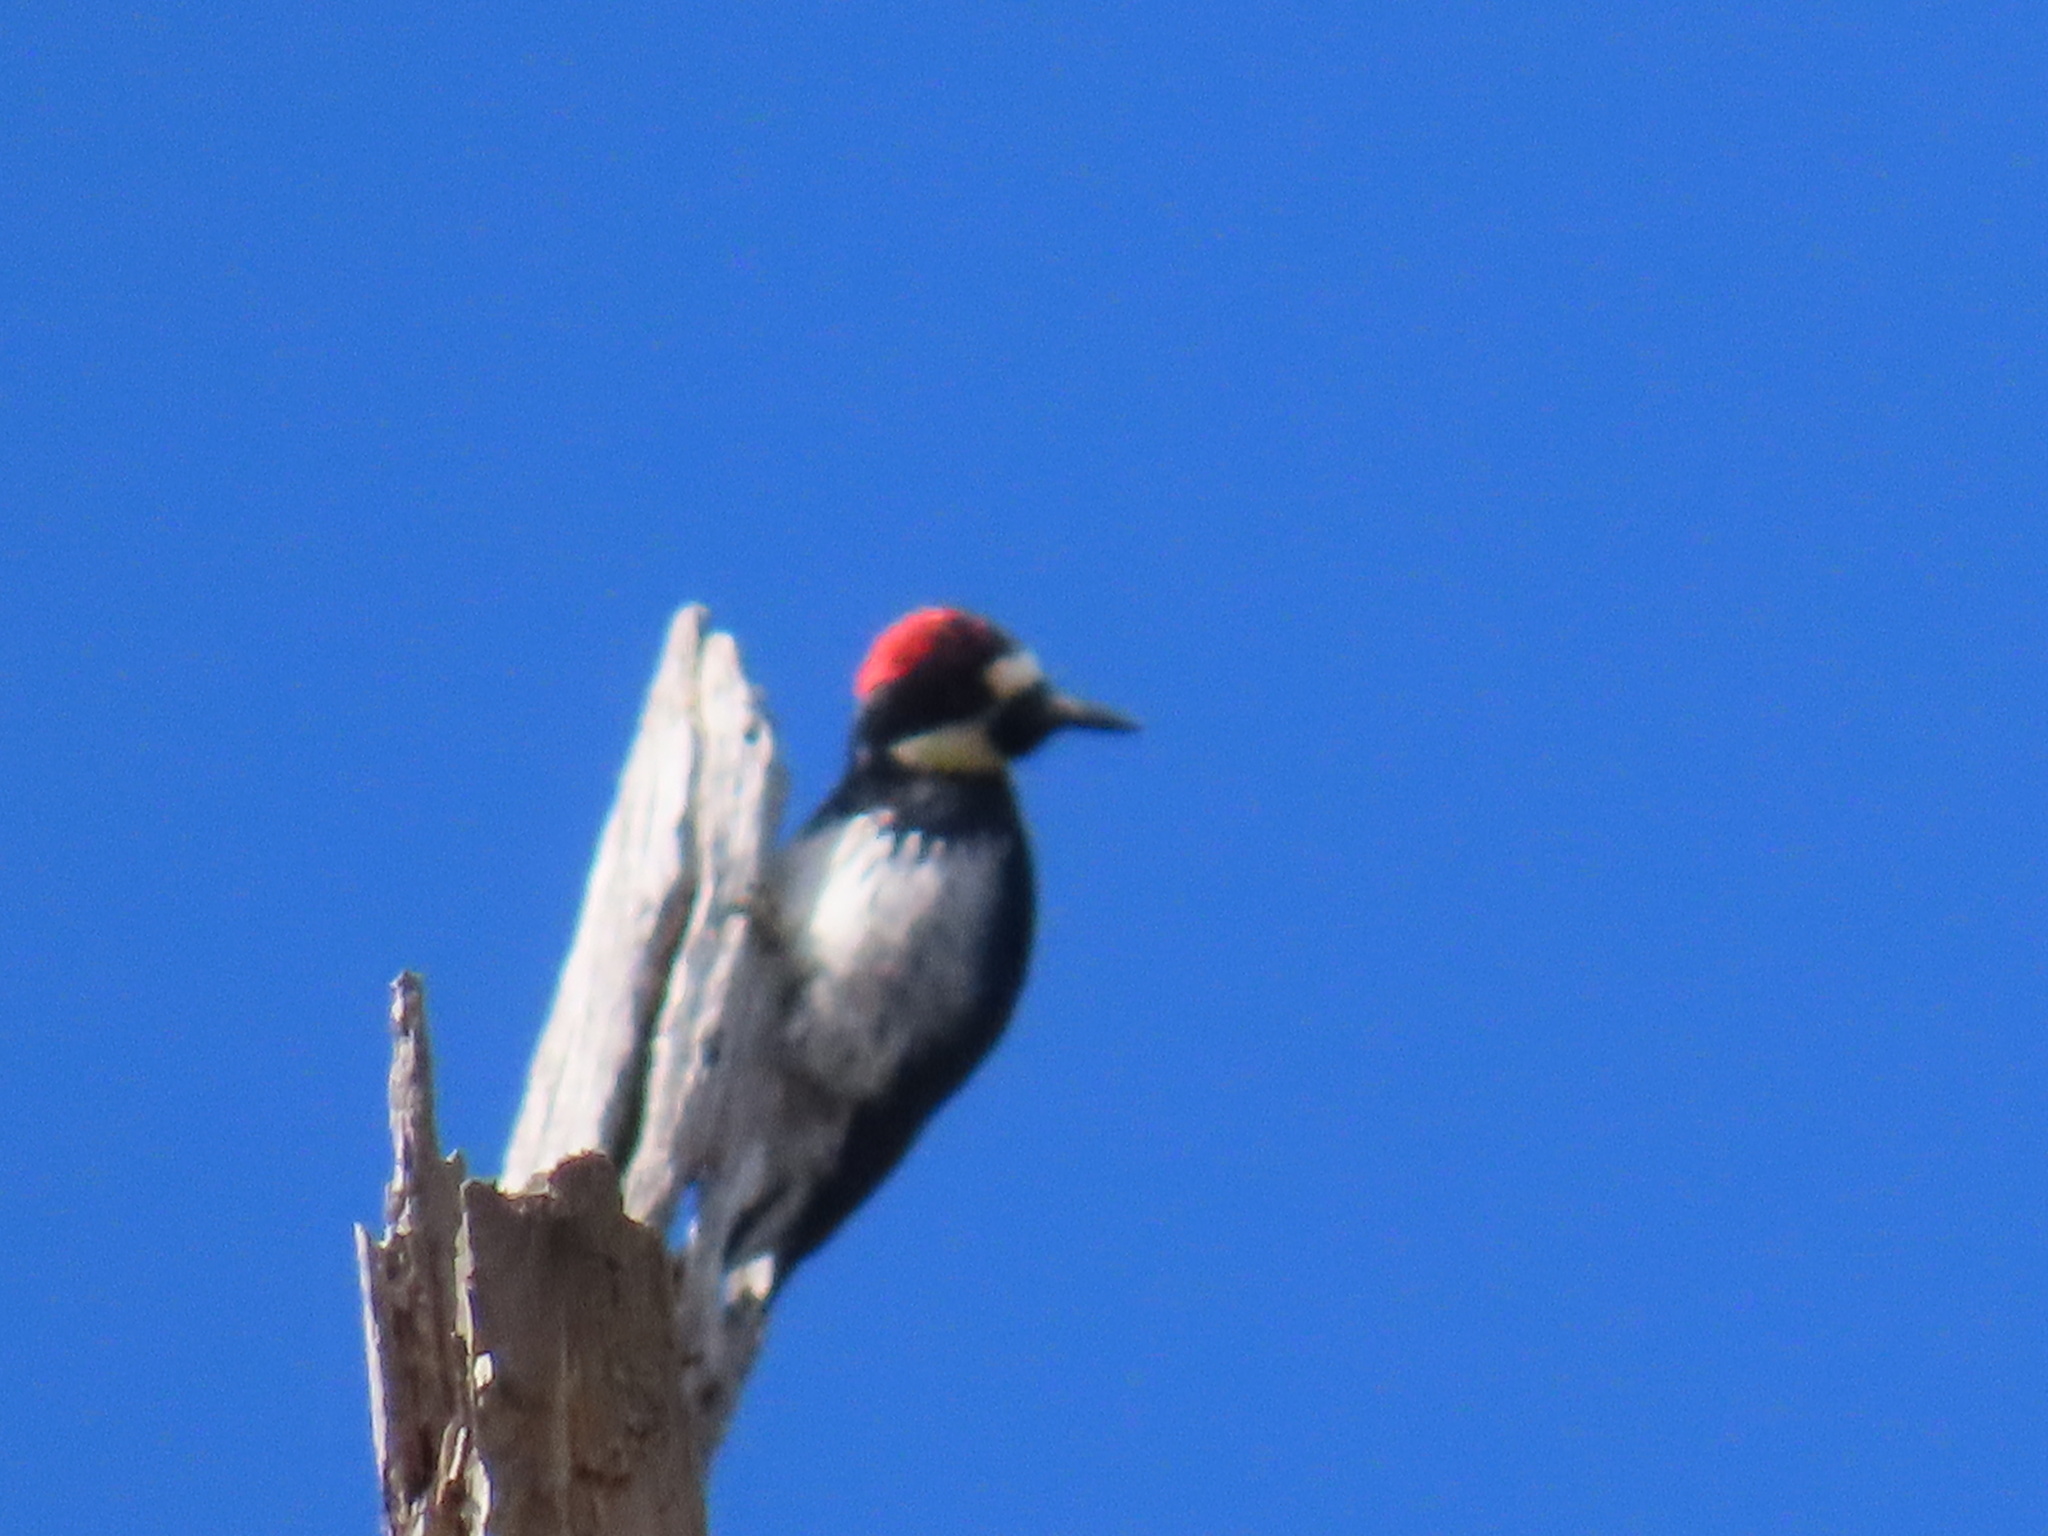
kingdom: Animalia
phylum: Chordata
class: Aves
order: Piciformes
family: Picidae
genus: Melanerpes
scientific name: Melanerpes formicivorus
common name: Acorn woodpecker
